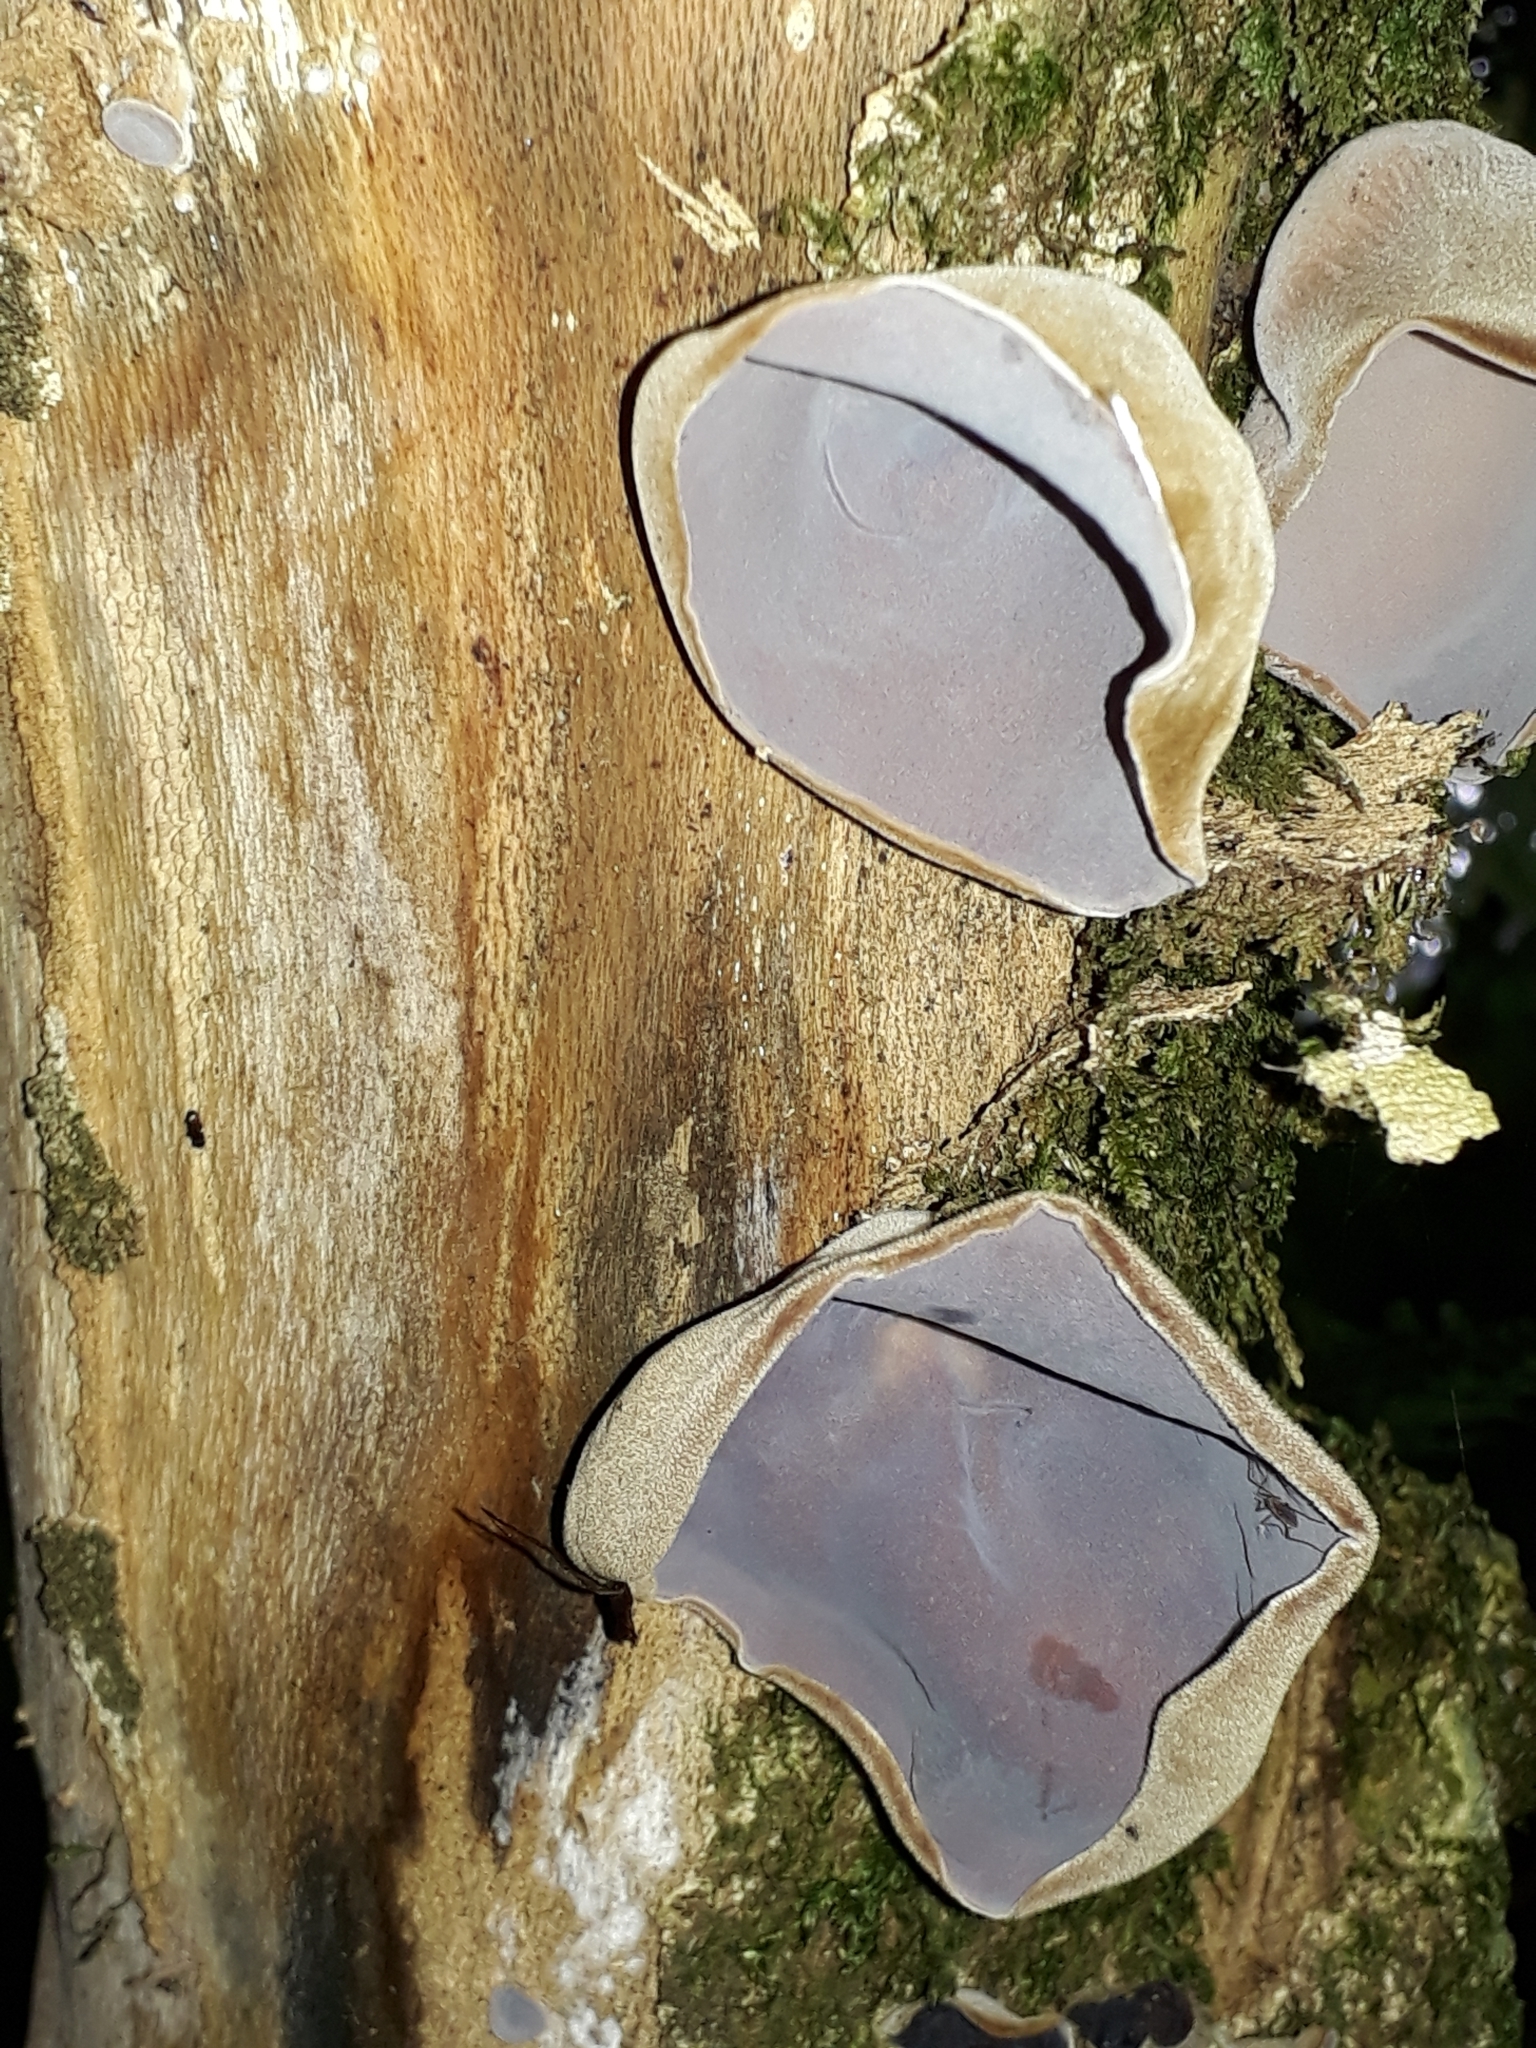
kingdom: Fungi
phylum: Basidiomycota
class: Agaricomycetes
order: Auriculariales
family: Auriculariaceae
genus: Auricularia
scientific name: Auricularia cornea
